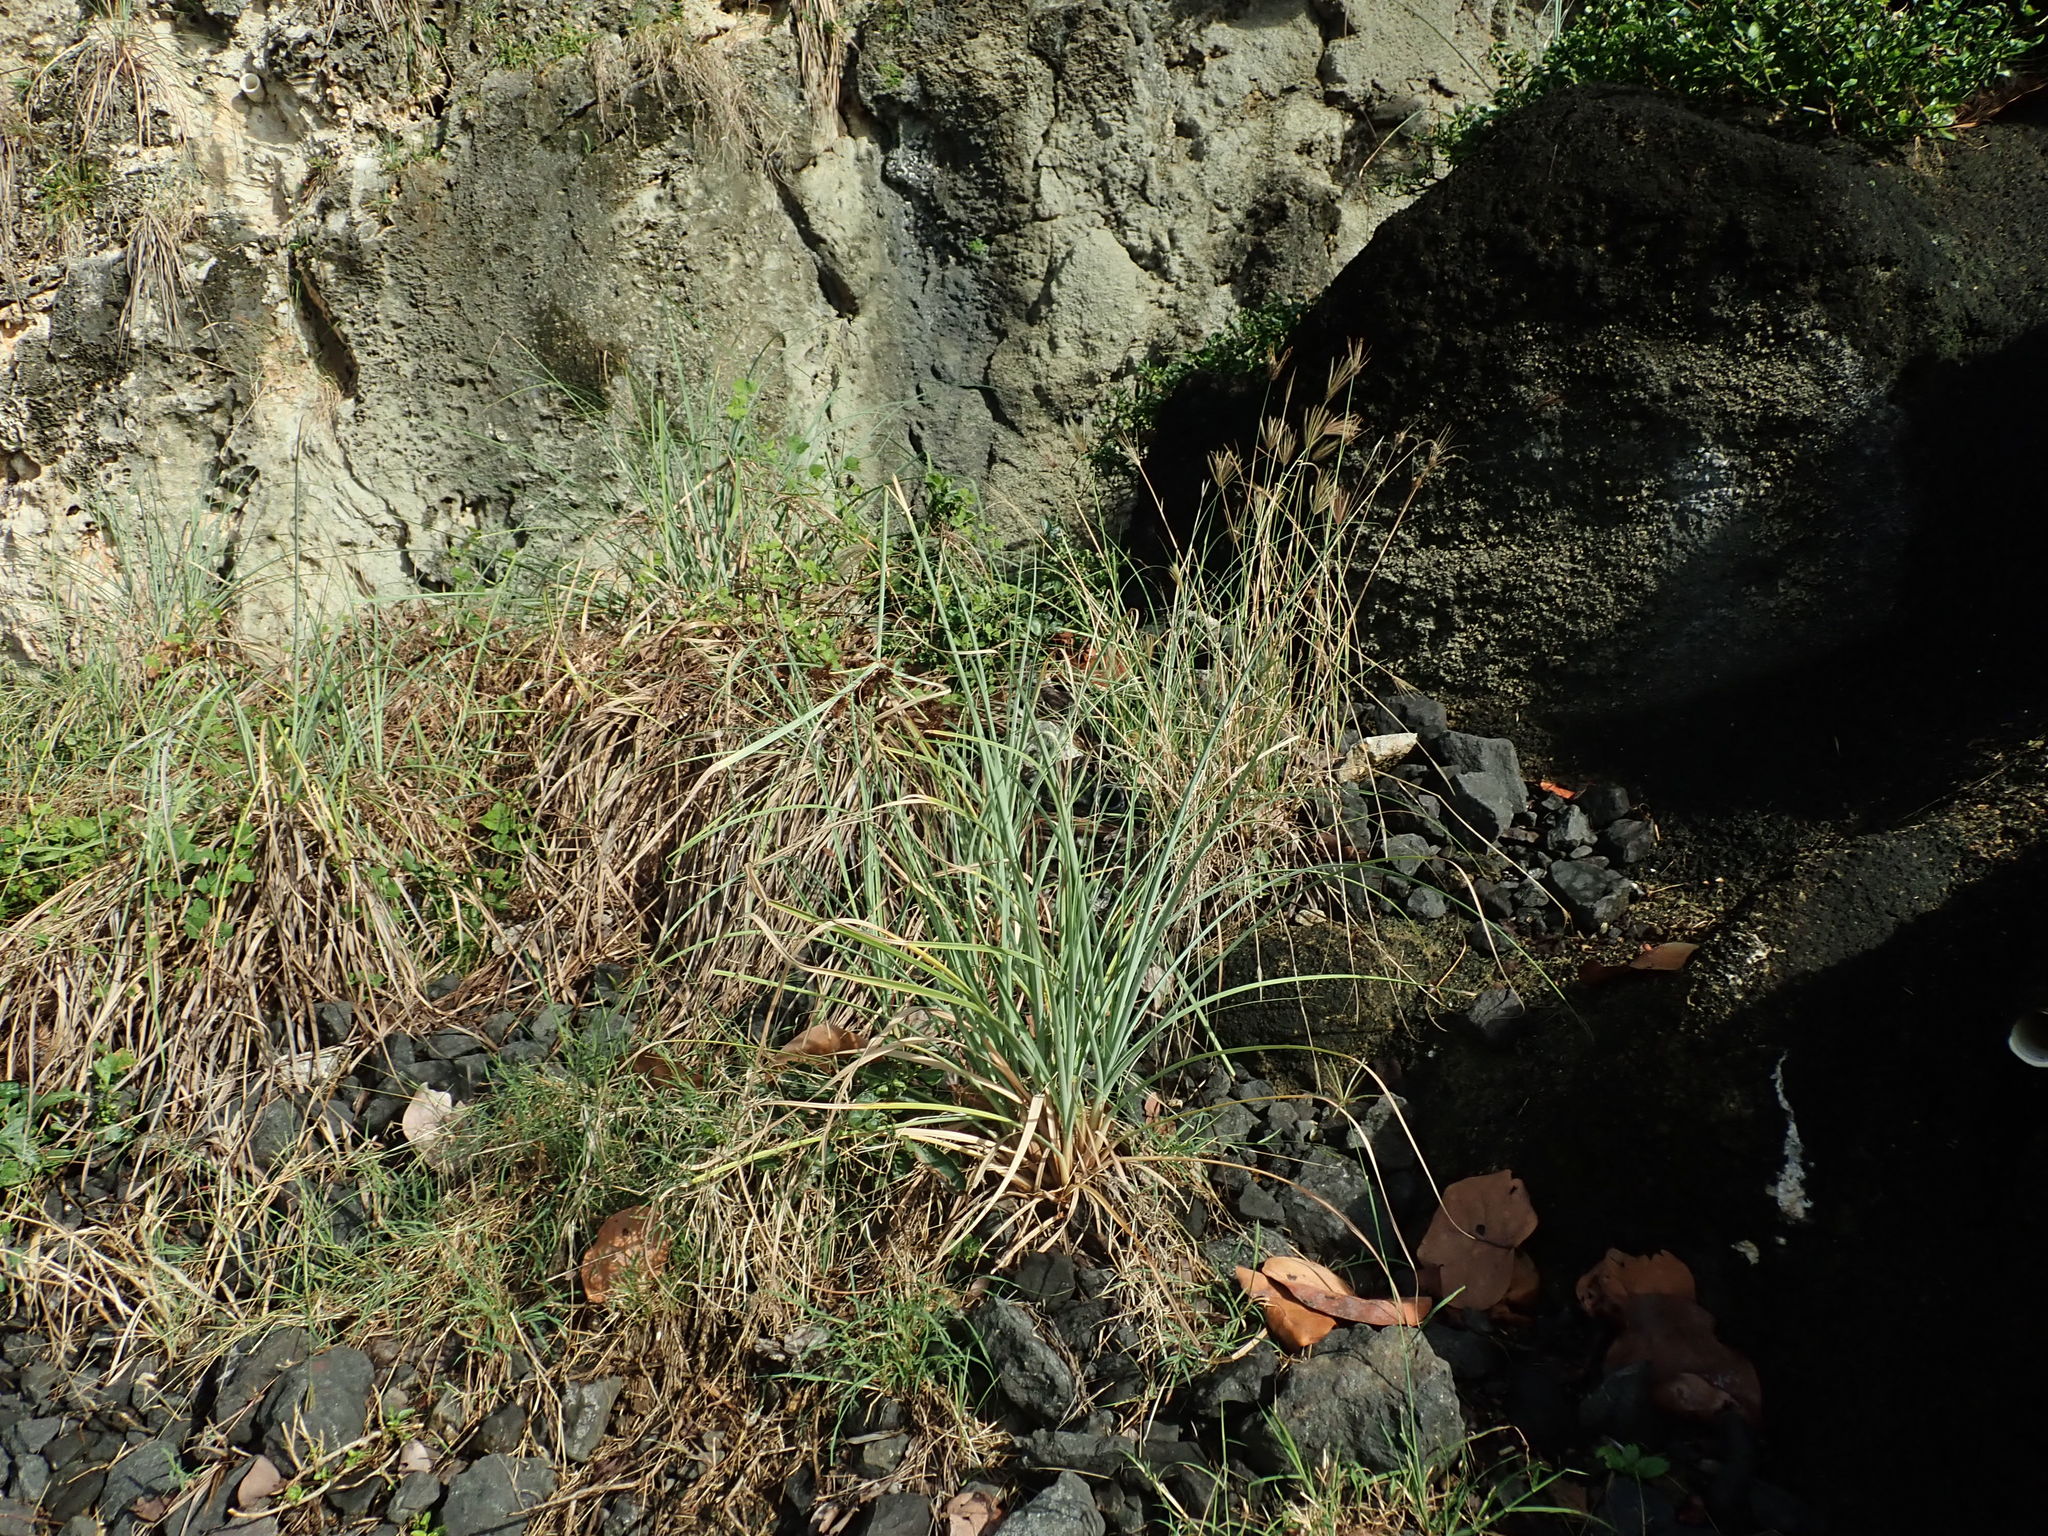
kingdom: Plantae
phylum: Tracheophyta
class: Liliopsida
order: Poales
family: Cyperaceae
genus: Cyperus
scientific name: Cyperus ligularis
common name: Swamp flat sedge
